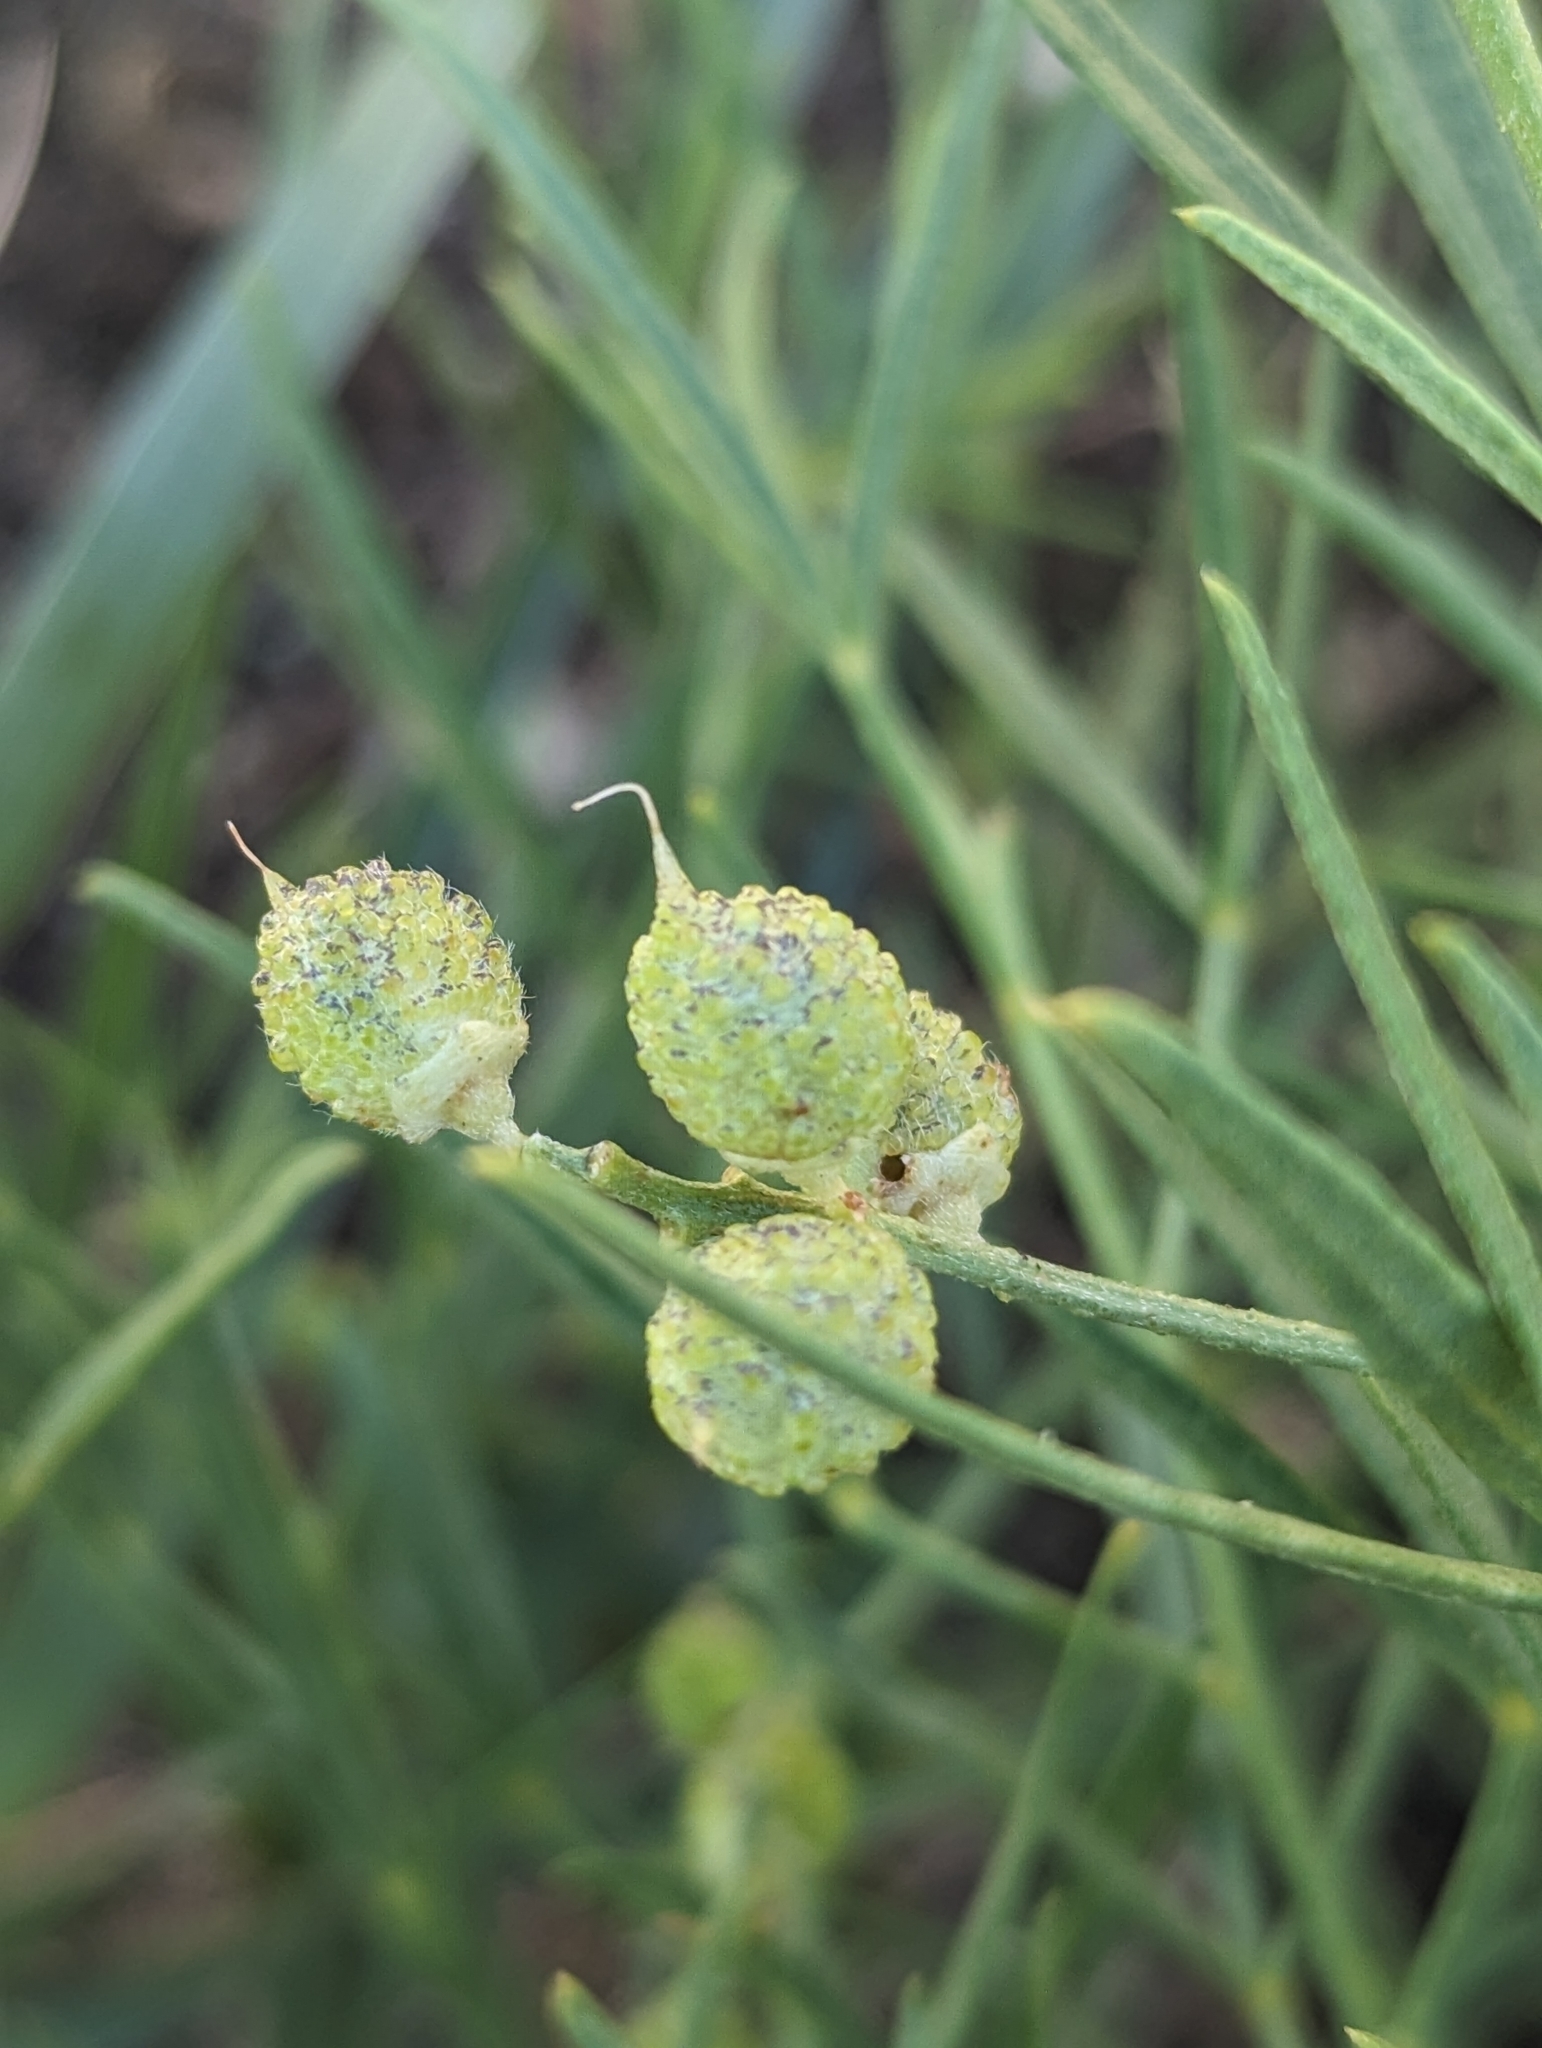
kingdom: Plantae
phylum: Tracheophyta
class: Magnoliopsida
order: Fabales
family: Fabaceae
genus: Ladeania
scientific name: Ladeania lanceolata
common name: Dune scurf-pea
